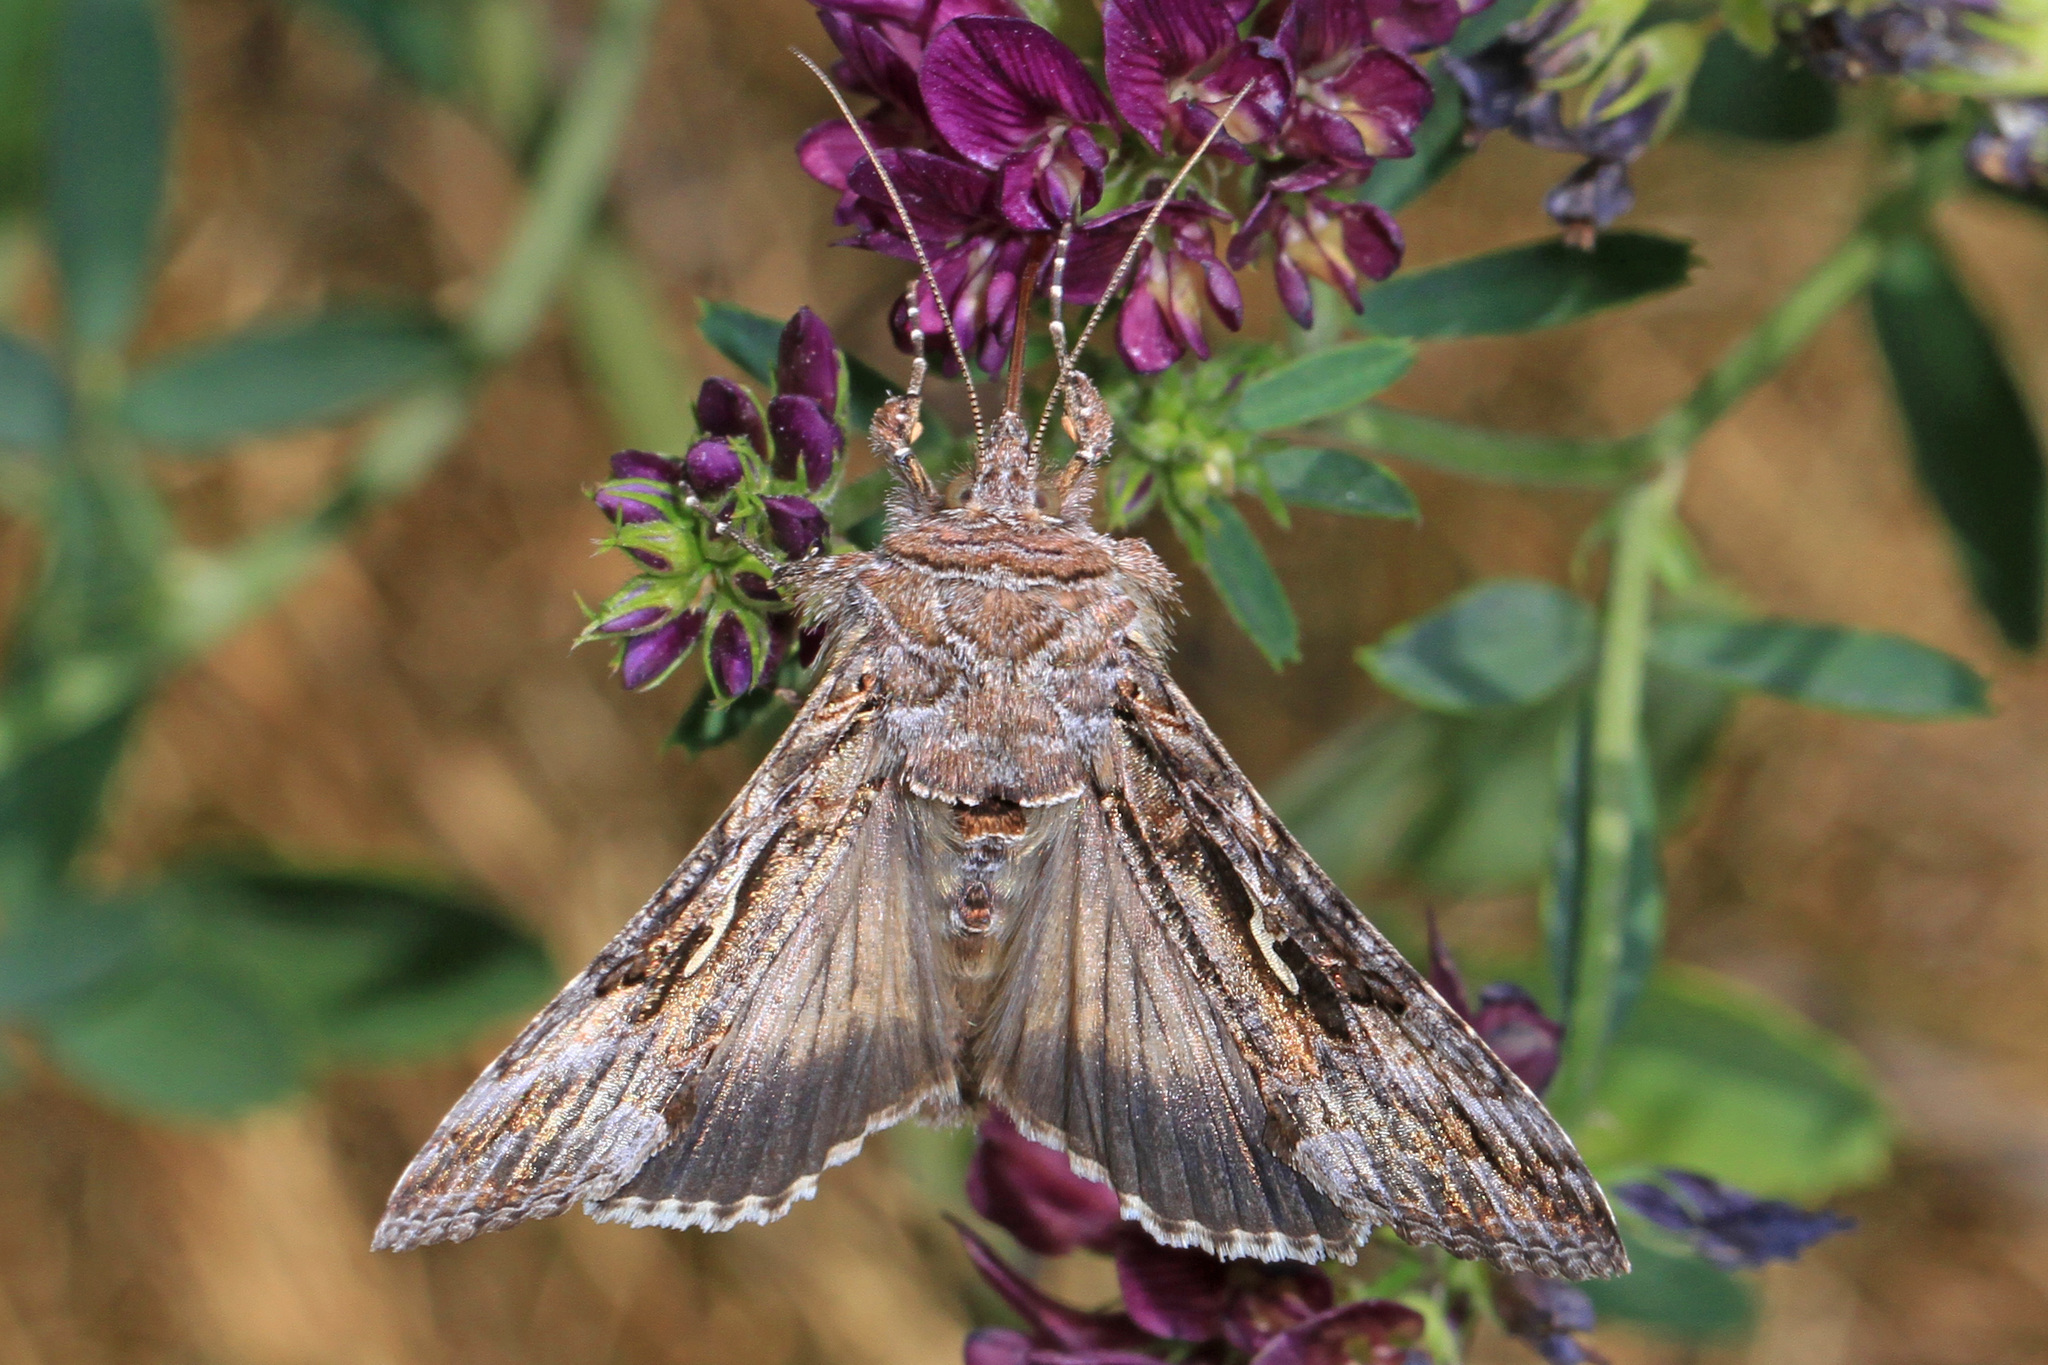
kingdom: Animalia
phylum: Arthropoda
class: Insecta
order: Lepidoptera
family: Noctuidae
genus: Autographa
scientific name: Autographa californica
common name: Alfalfa looper
